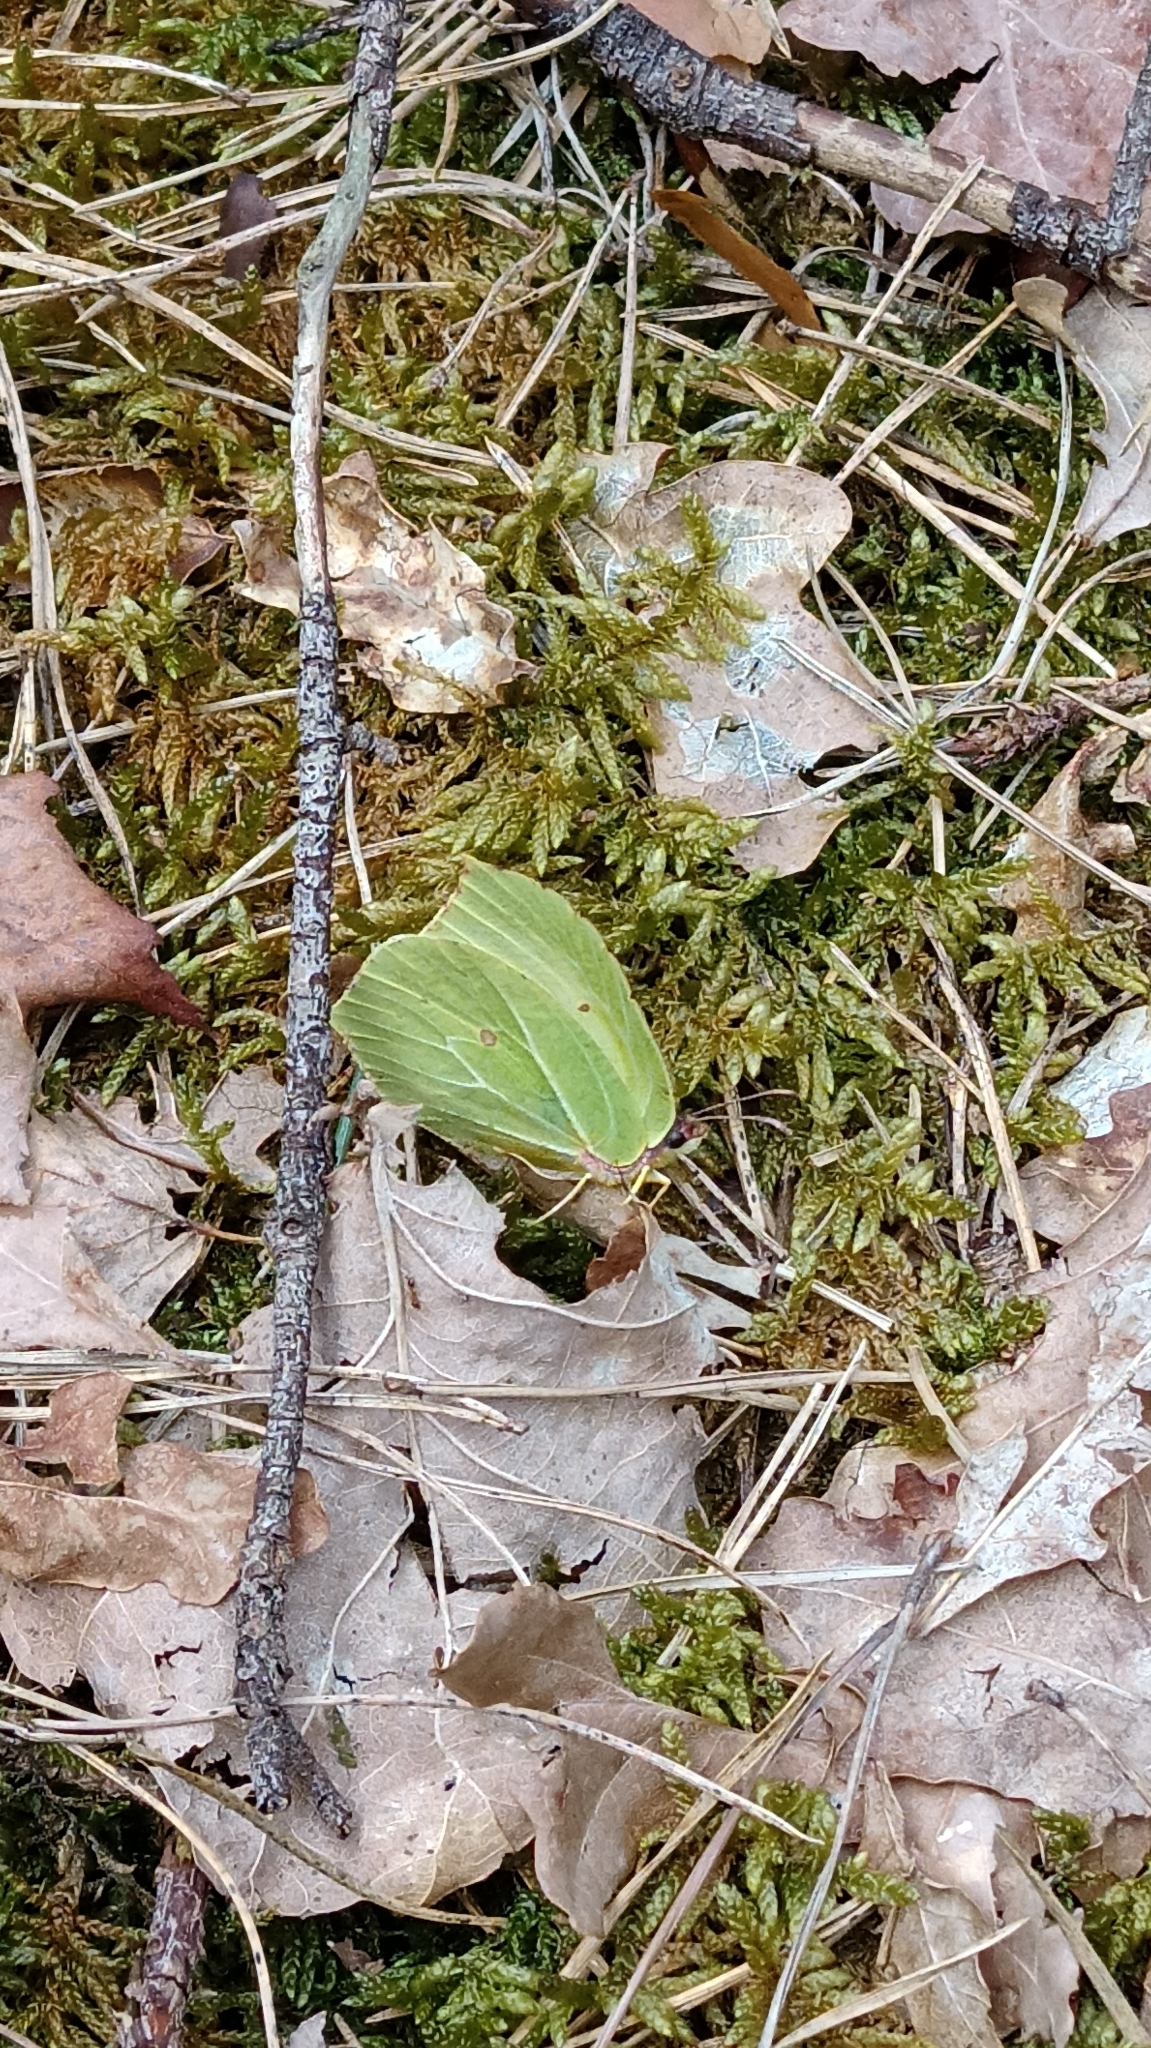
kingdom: Animalia
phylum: Arthropoda
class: Insecta
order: Lepidoptera
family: Pieridae
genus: Gonepteryx
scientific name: Gonepteryx rhamni
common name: Brimstone
